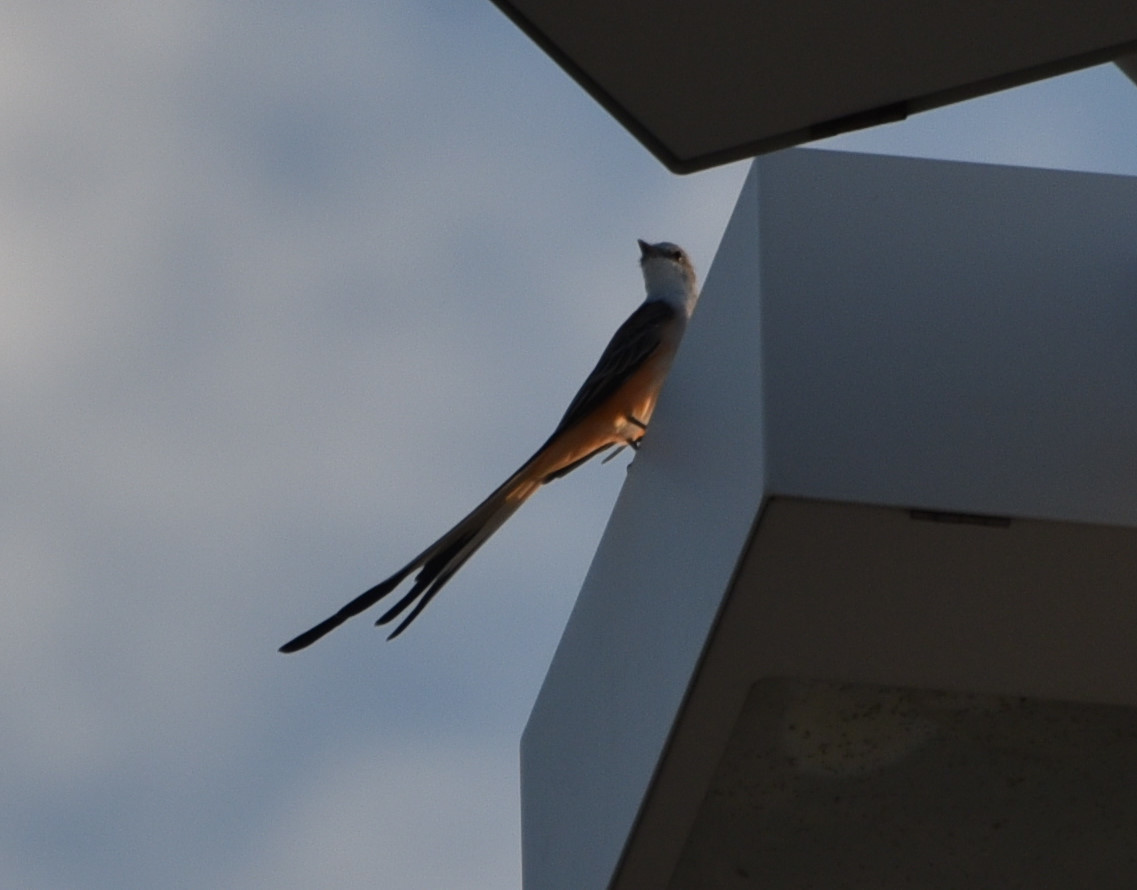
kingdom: Animalia
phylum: Chordata
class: Aves
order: Passeriformes
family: Tyrannidae
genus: Tyrannus
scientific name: Tyrannus forficatus
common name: Scissor-tailed flycatcher
